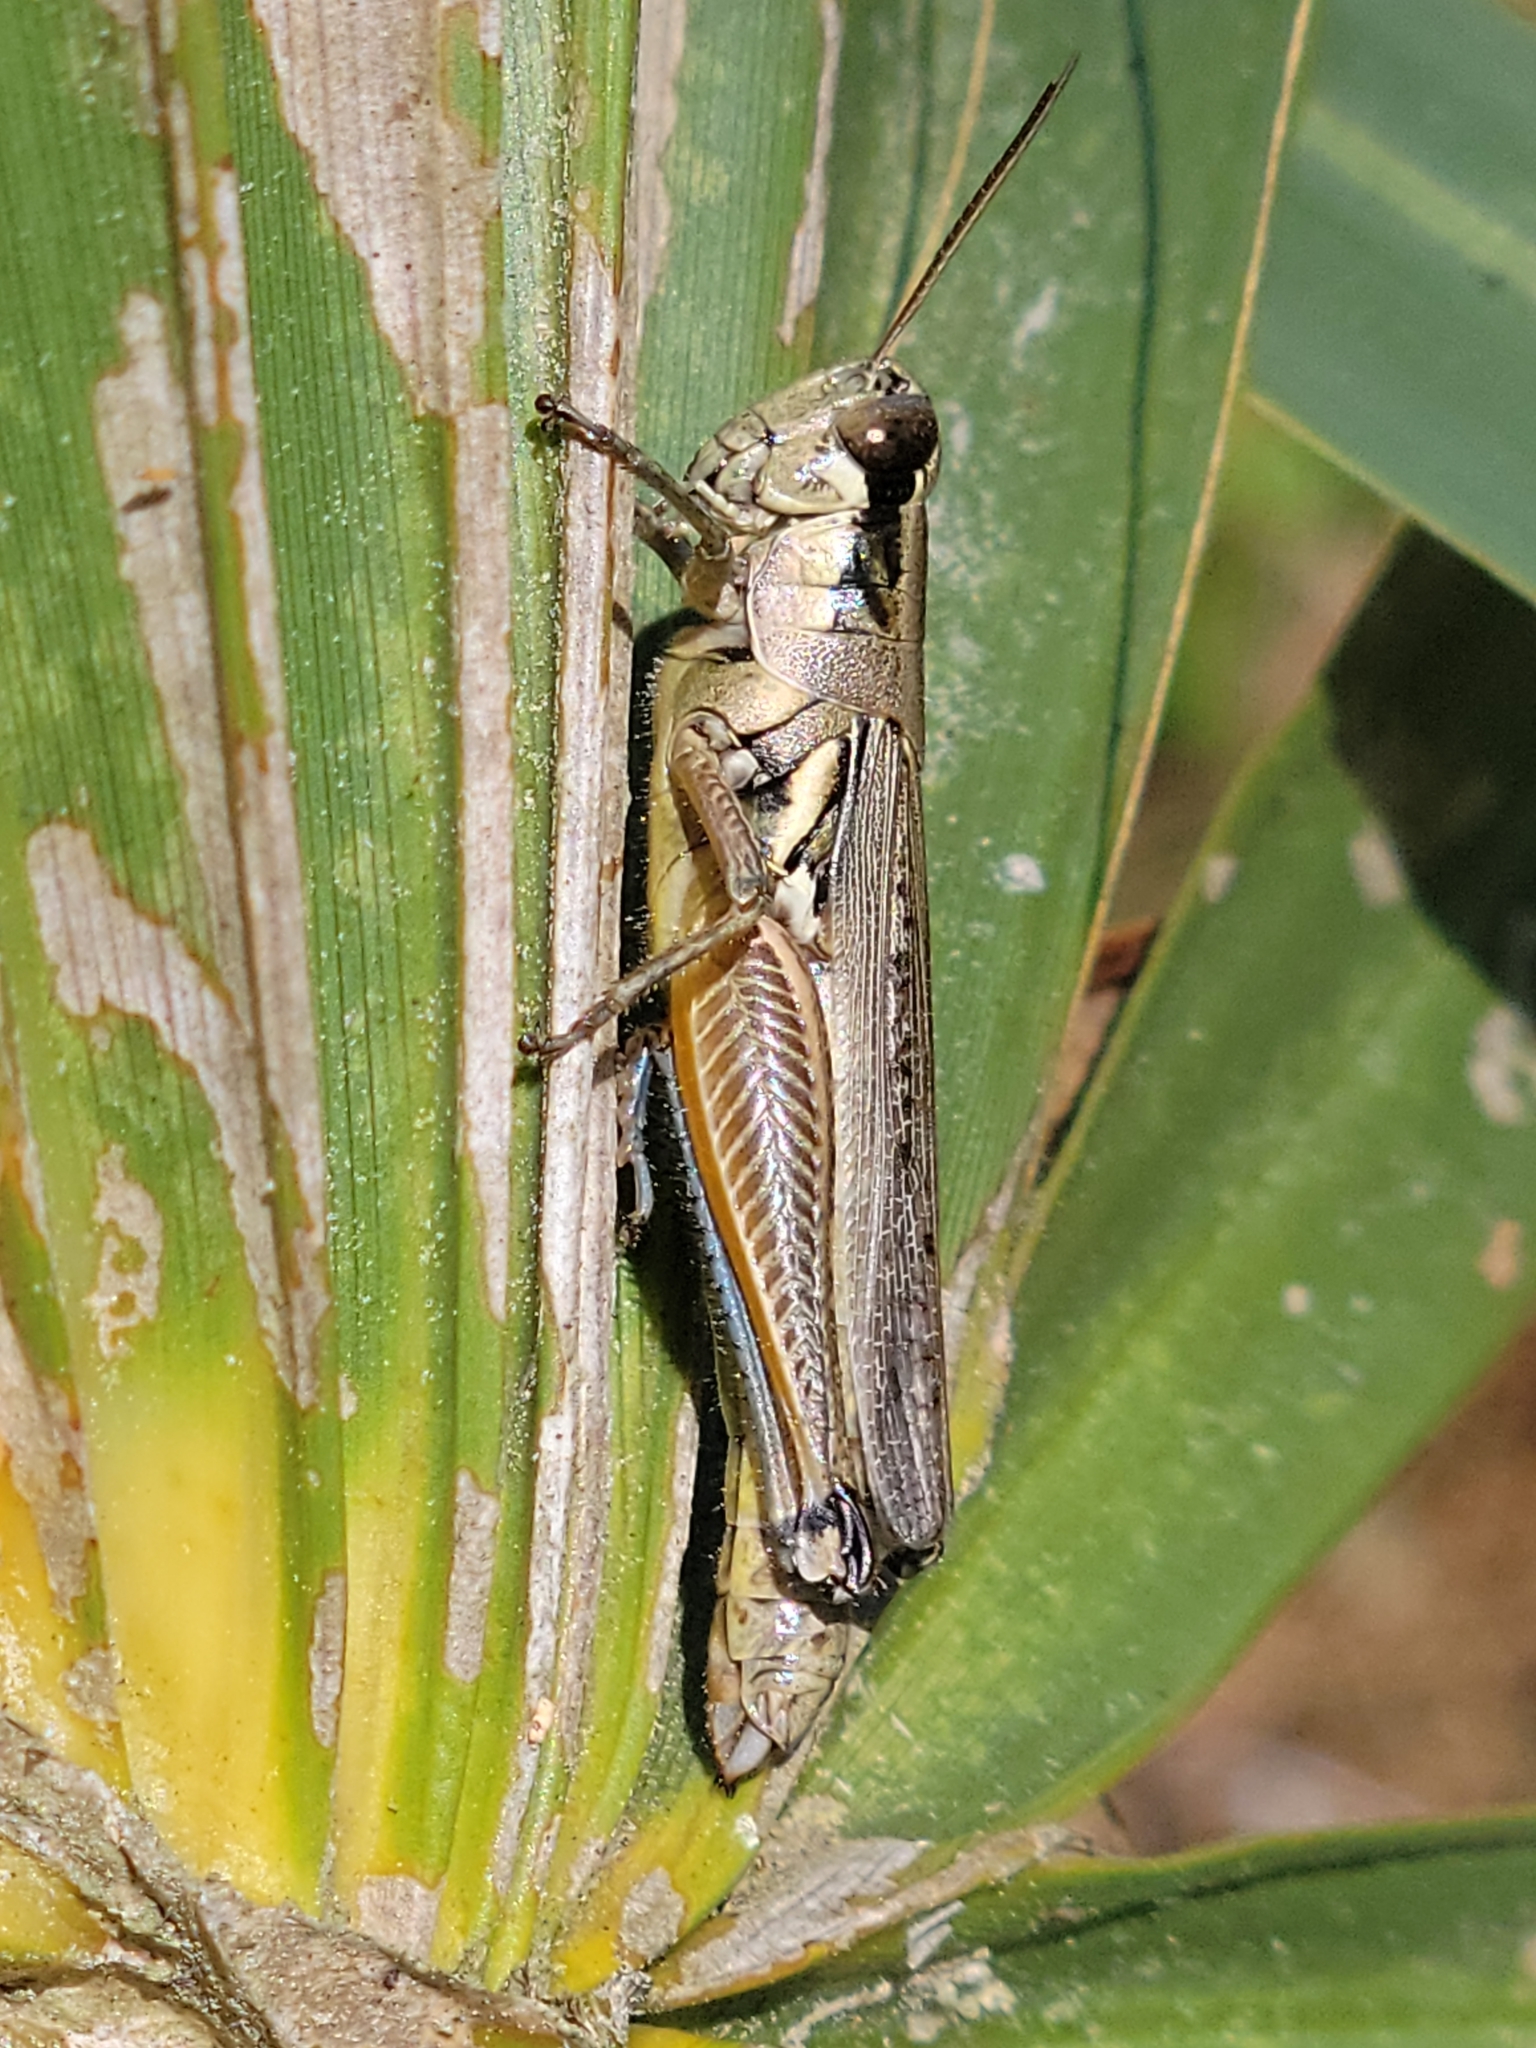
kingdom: Animalia
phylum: Arthropoda
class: Insecta
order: Orthoptera
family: Acrididae
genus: Paroxya
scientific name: Paroxya clavuligera
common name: Olive-green swamp grasshopper
